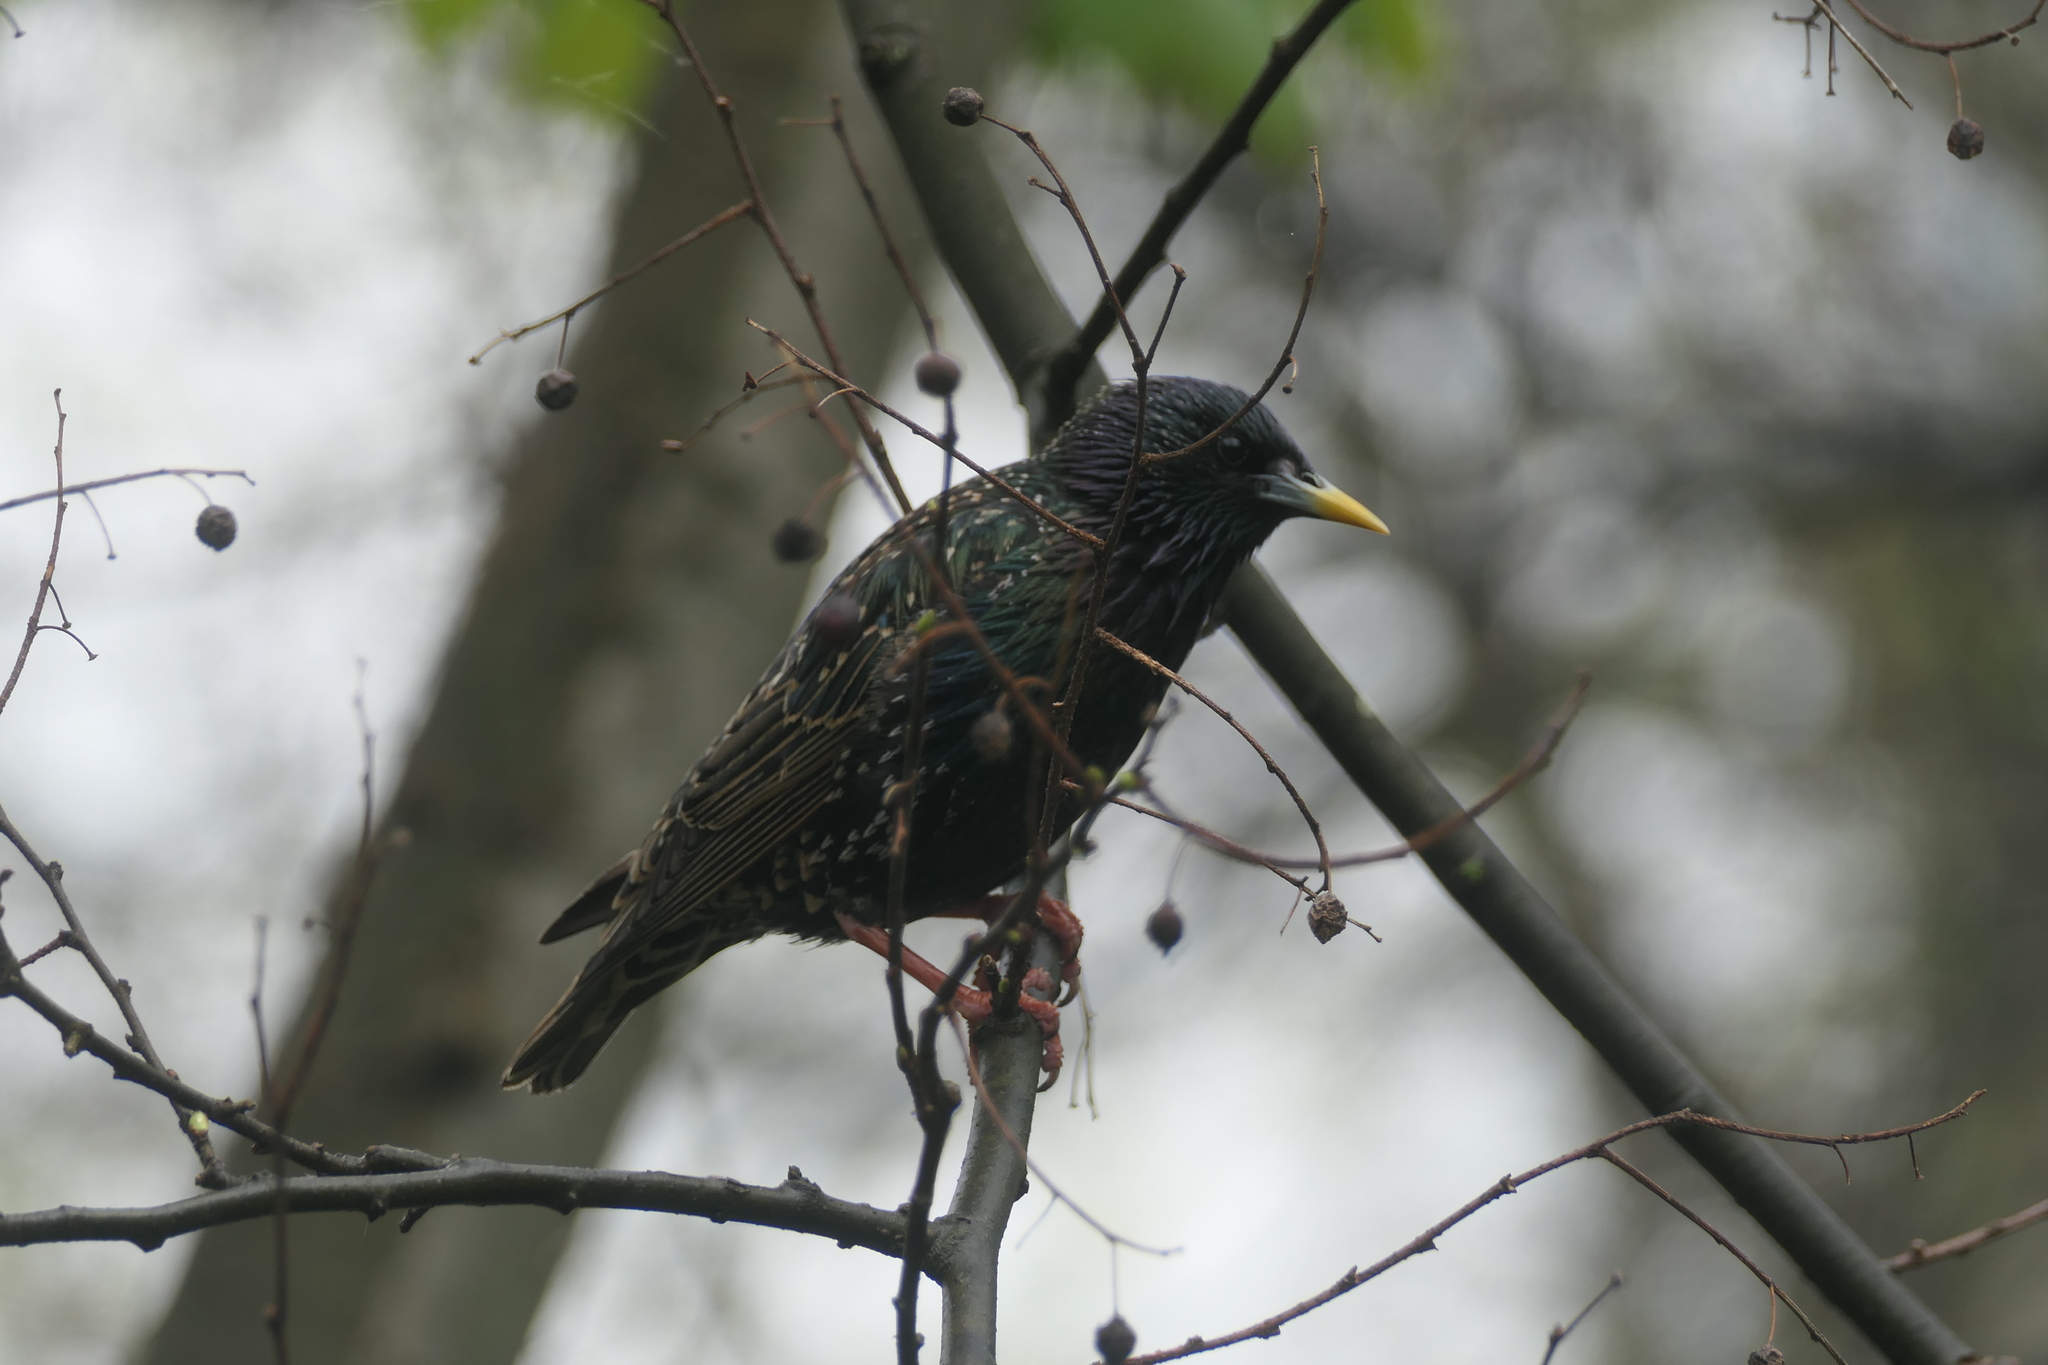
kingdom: Animalia
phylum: Chordata
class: Aves
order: Passeriformes
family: Sturnidae
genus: Sturnus
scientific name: Sturnus vulgaris
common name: Common starling
